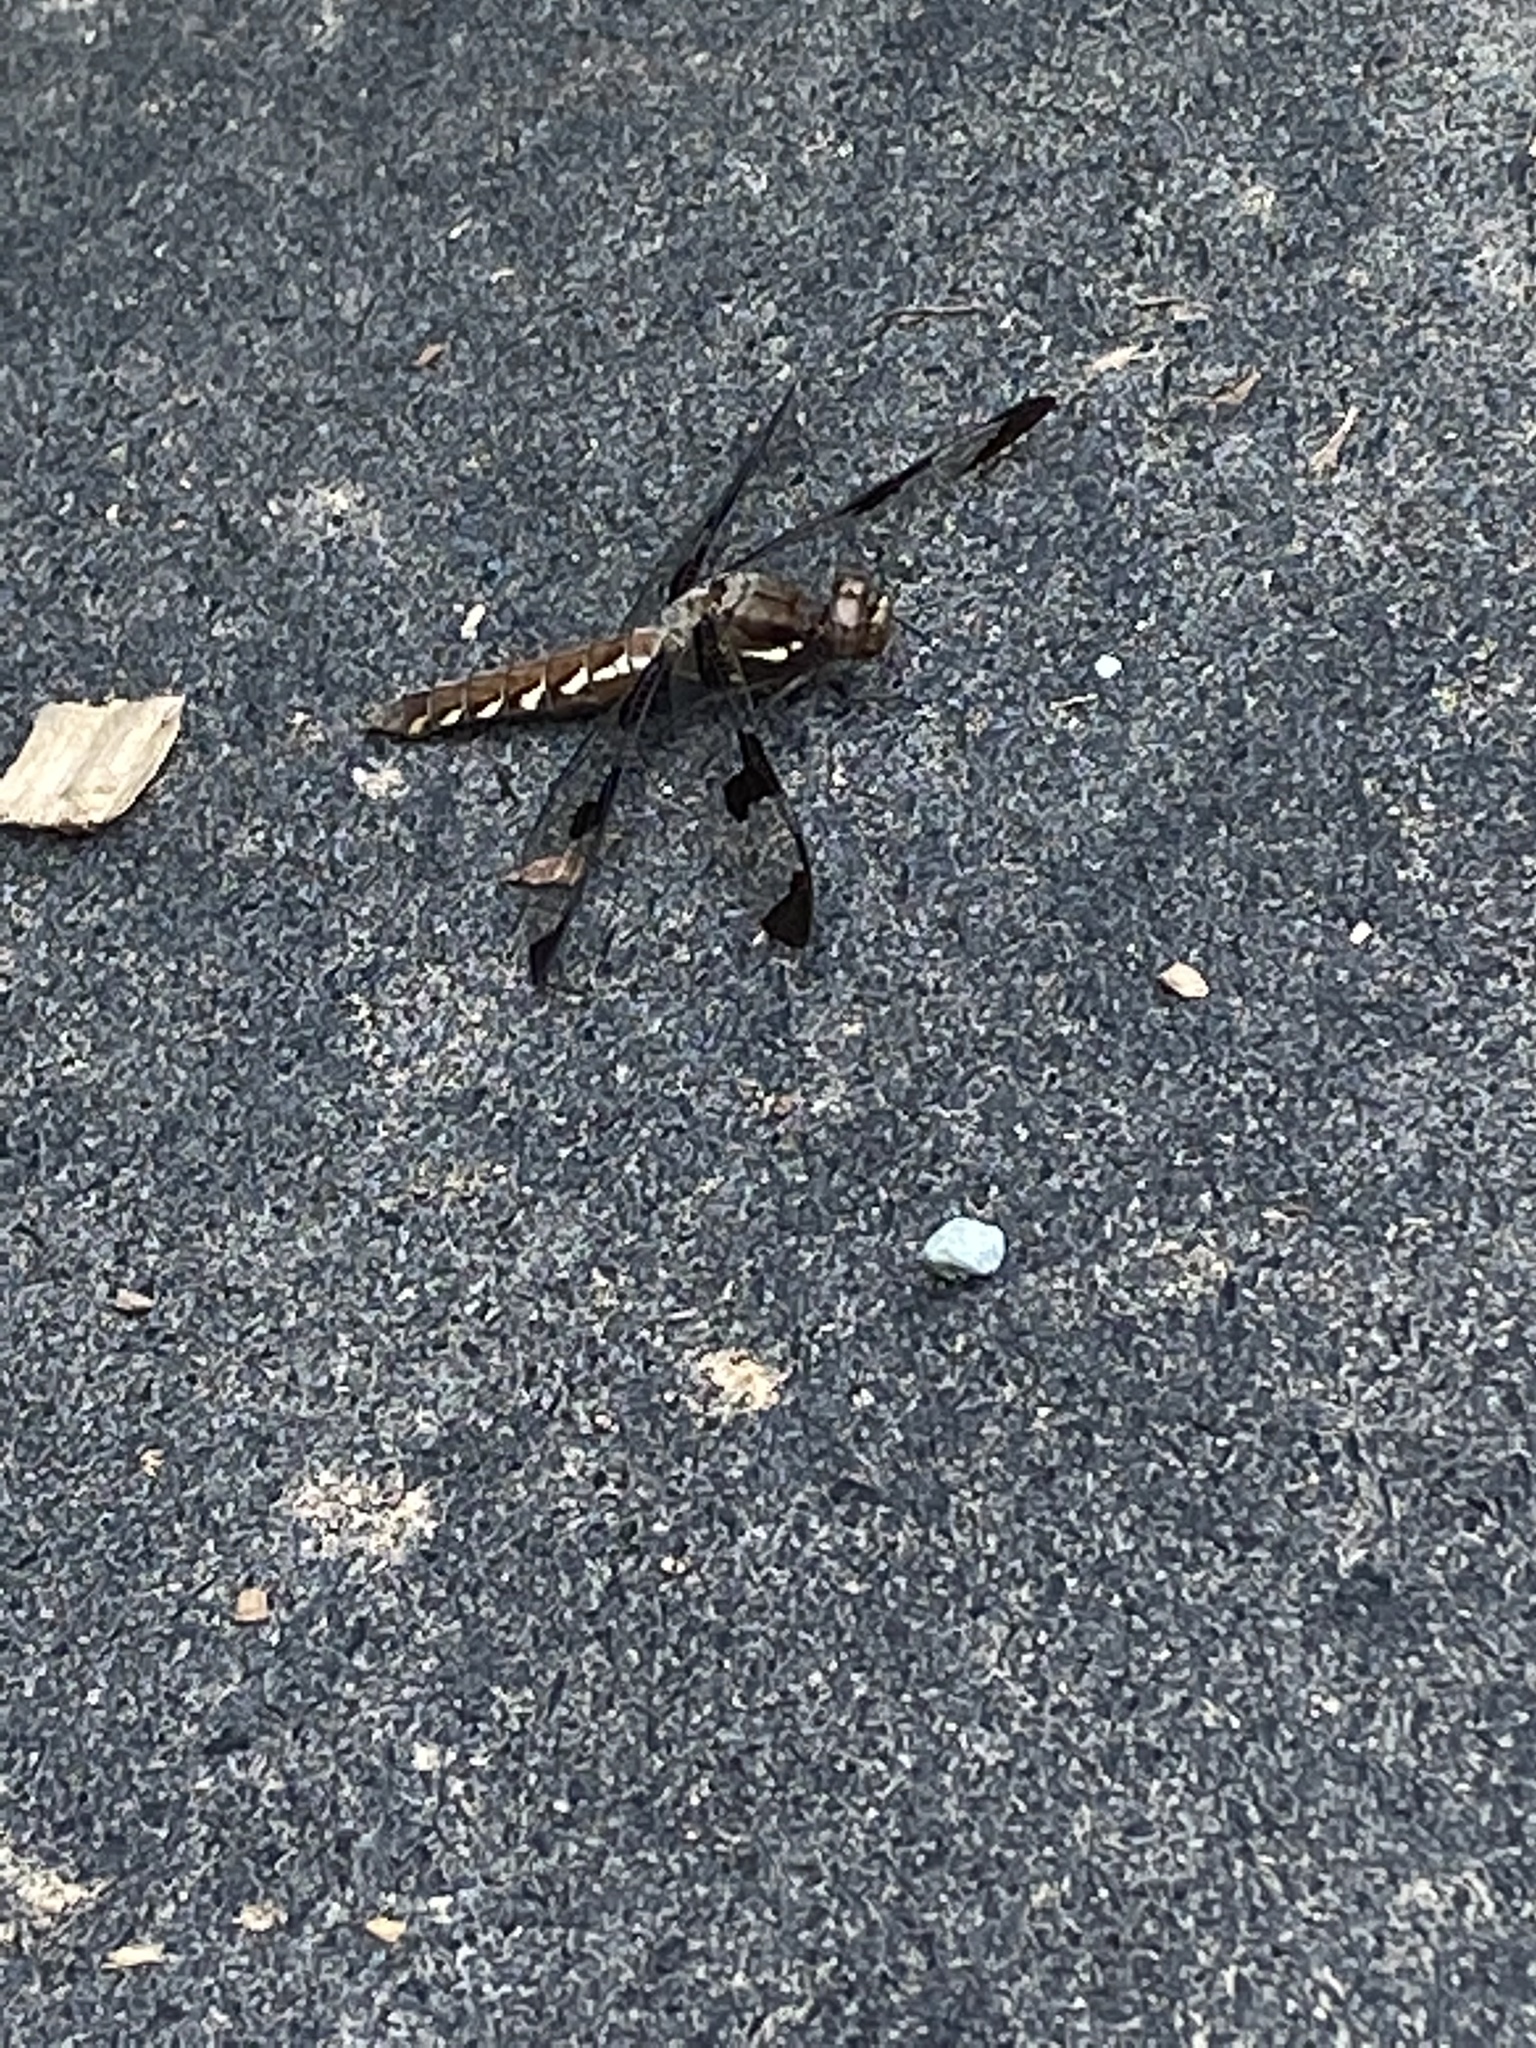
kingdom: Animalia
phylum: Arthropoda
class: Insecta
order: Odonata
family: Libellulidae
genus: Plathemis
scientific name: Plathemis lydia
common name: Common whitetail
